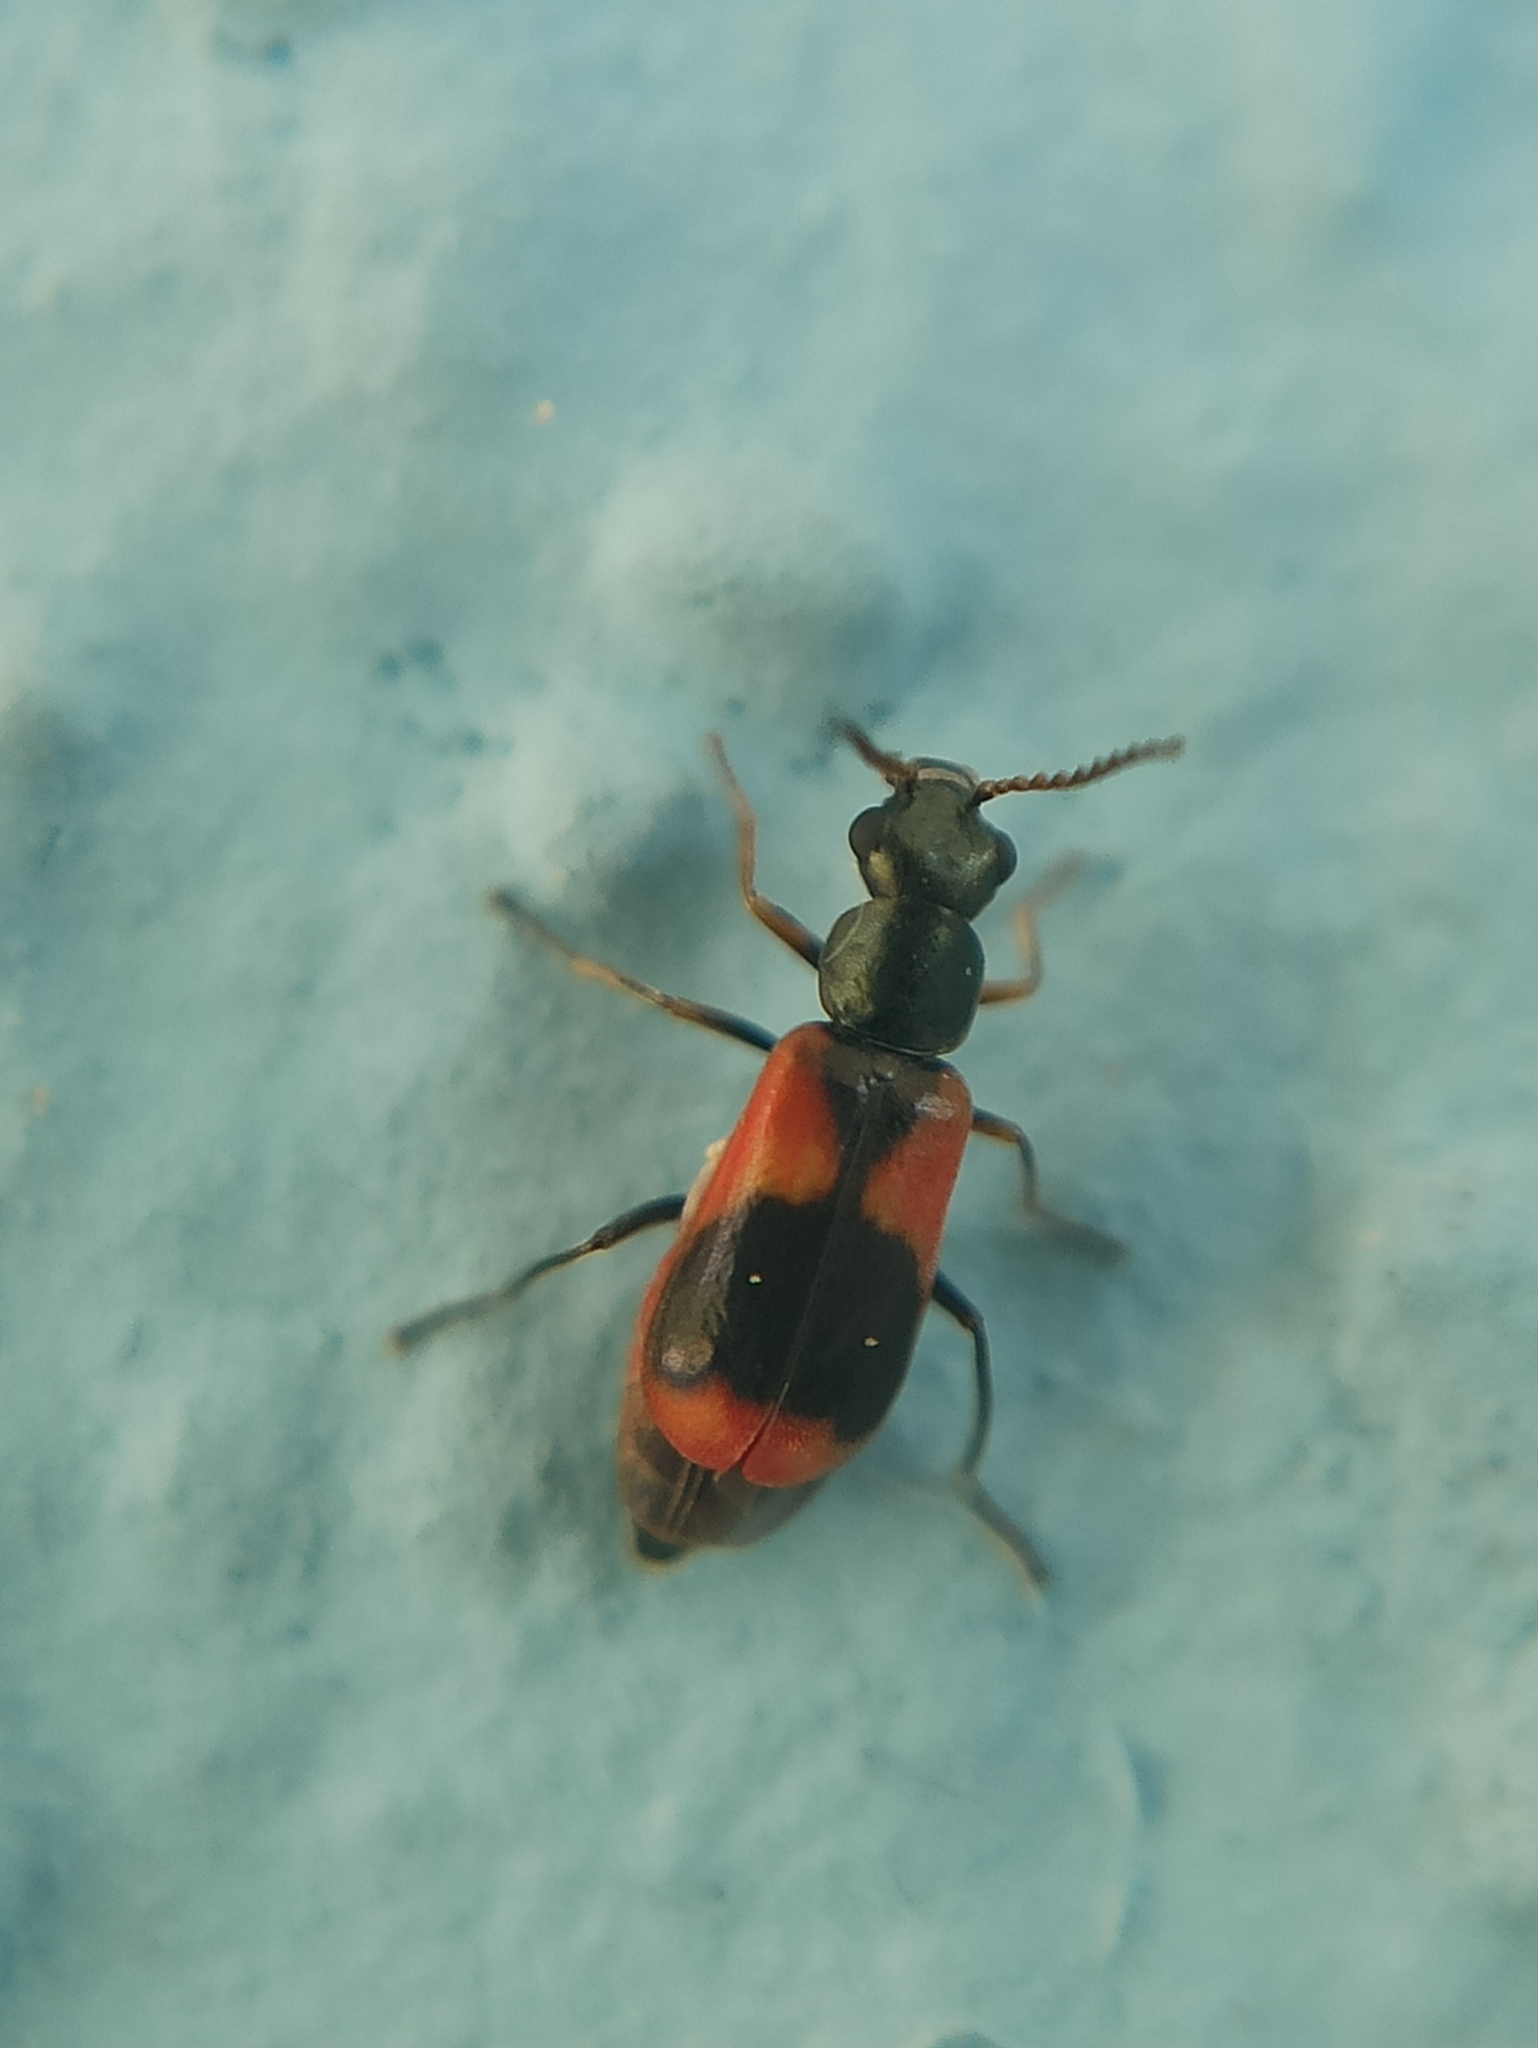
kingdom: Animalia
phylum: Arthropoda
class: Insecta
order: Coleoptera
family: Melyridae
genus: Anthocomus
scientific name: Anthocomus equestris
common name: Black-banded soft-winged flower beetle
